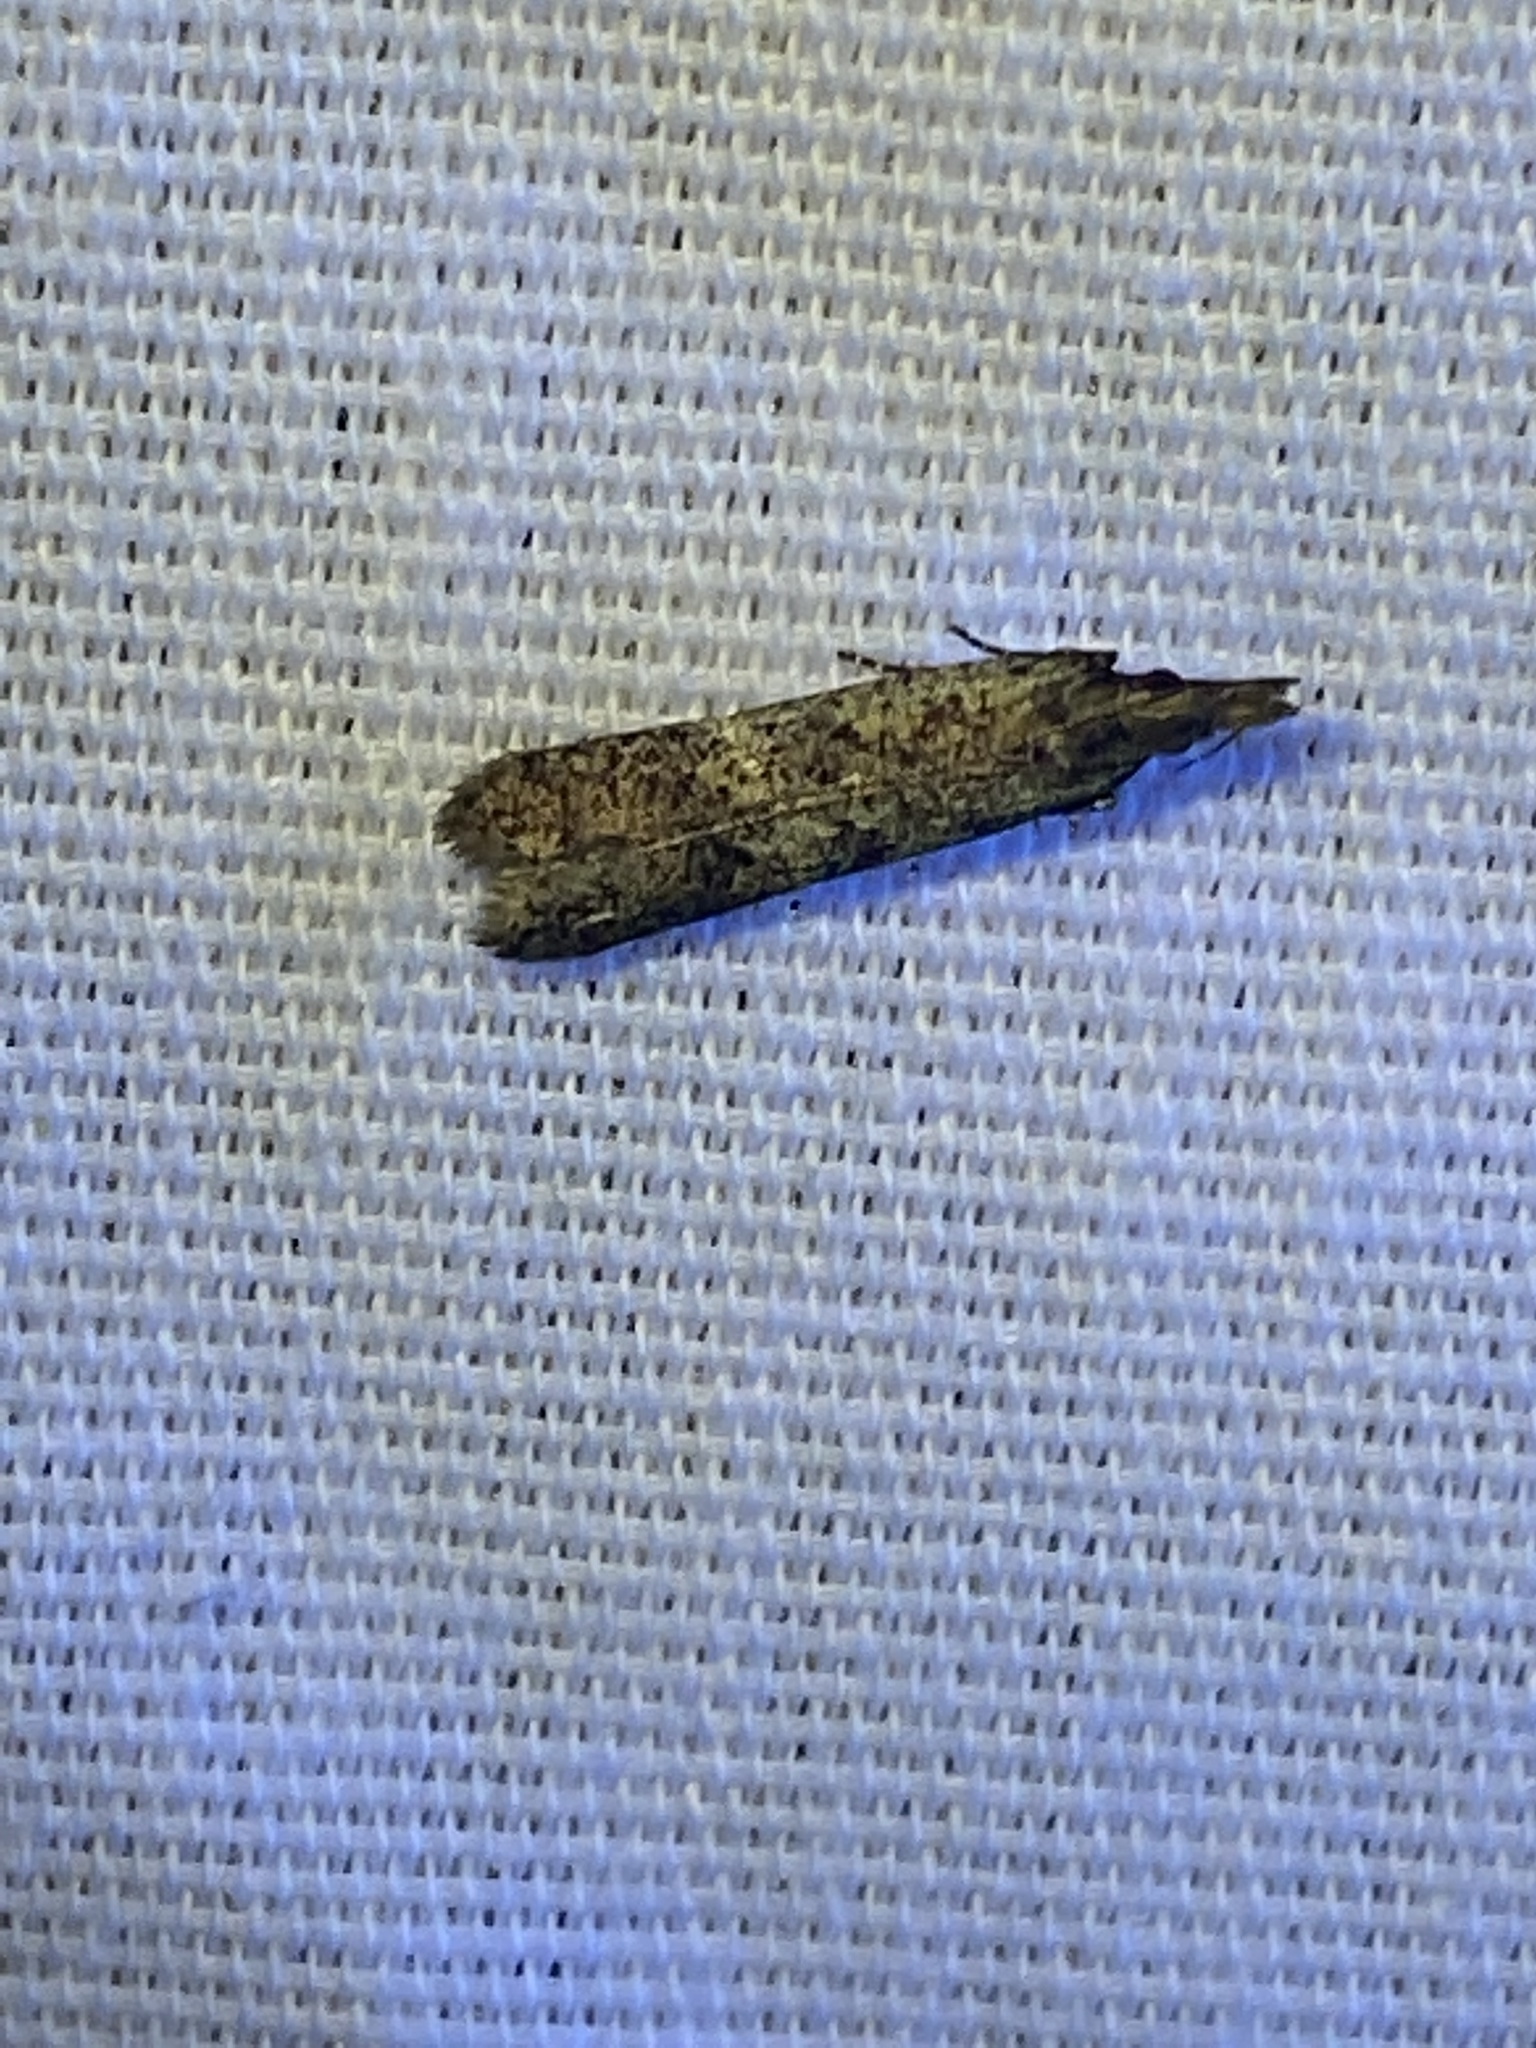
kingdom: Animalia
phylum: Arthropoda
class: Insecta
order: Lepidoptera
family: Gelechiidae
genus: Dichomeris
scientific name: Dichomeris ligulella
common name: Moth
